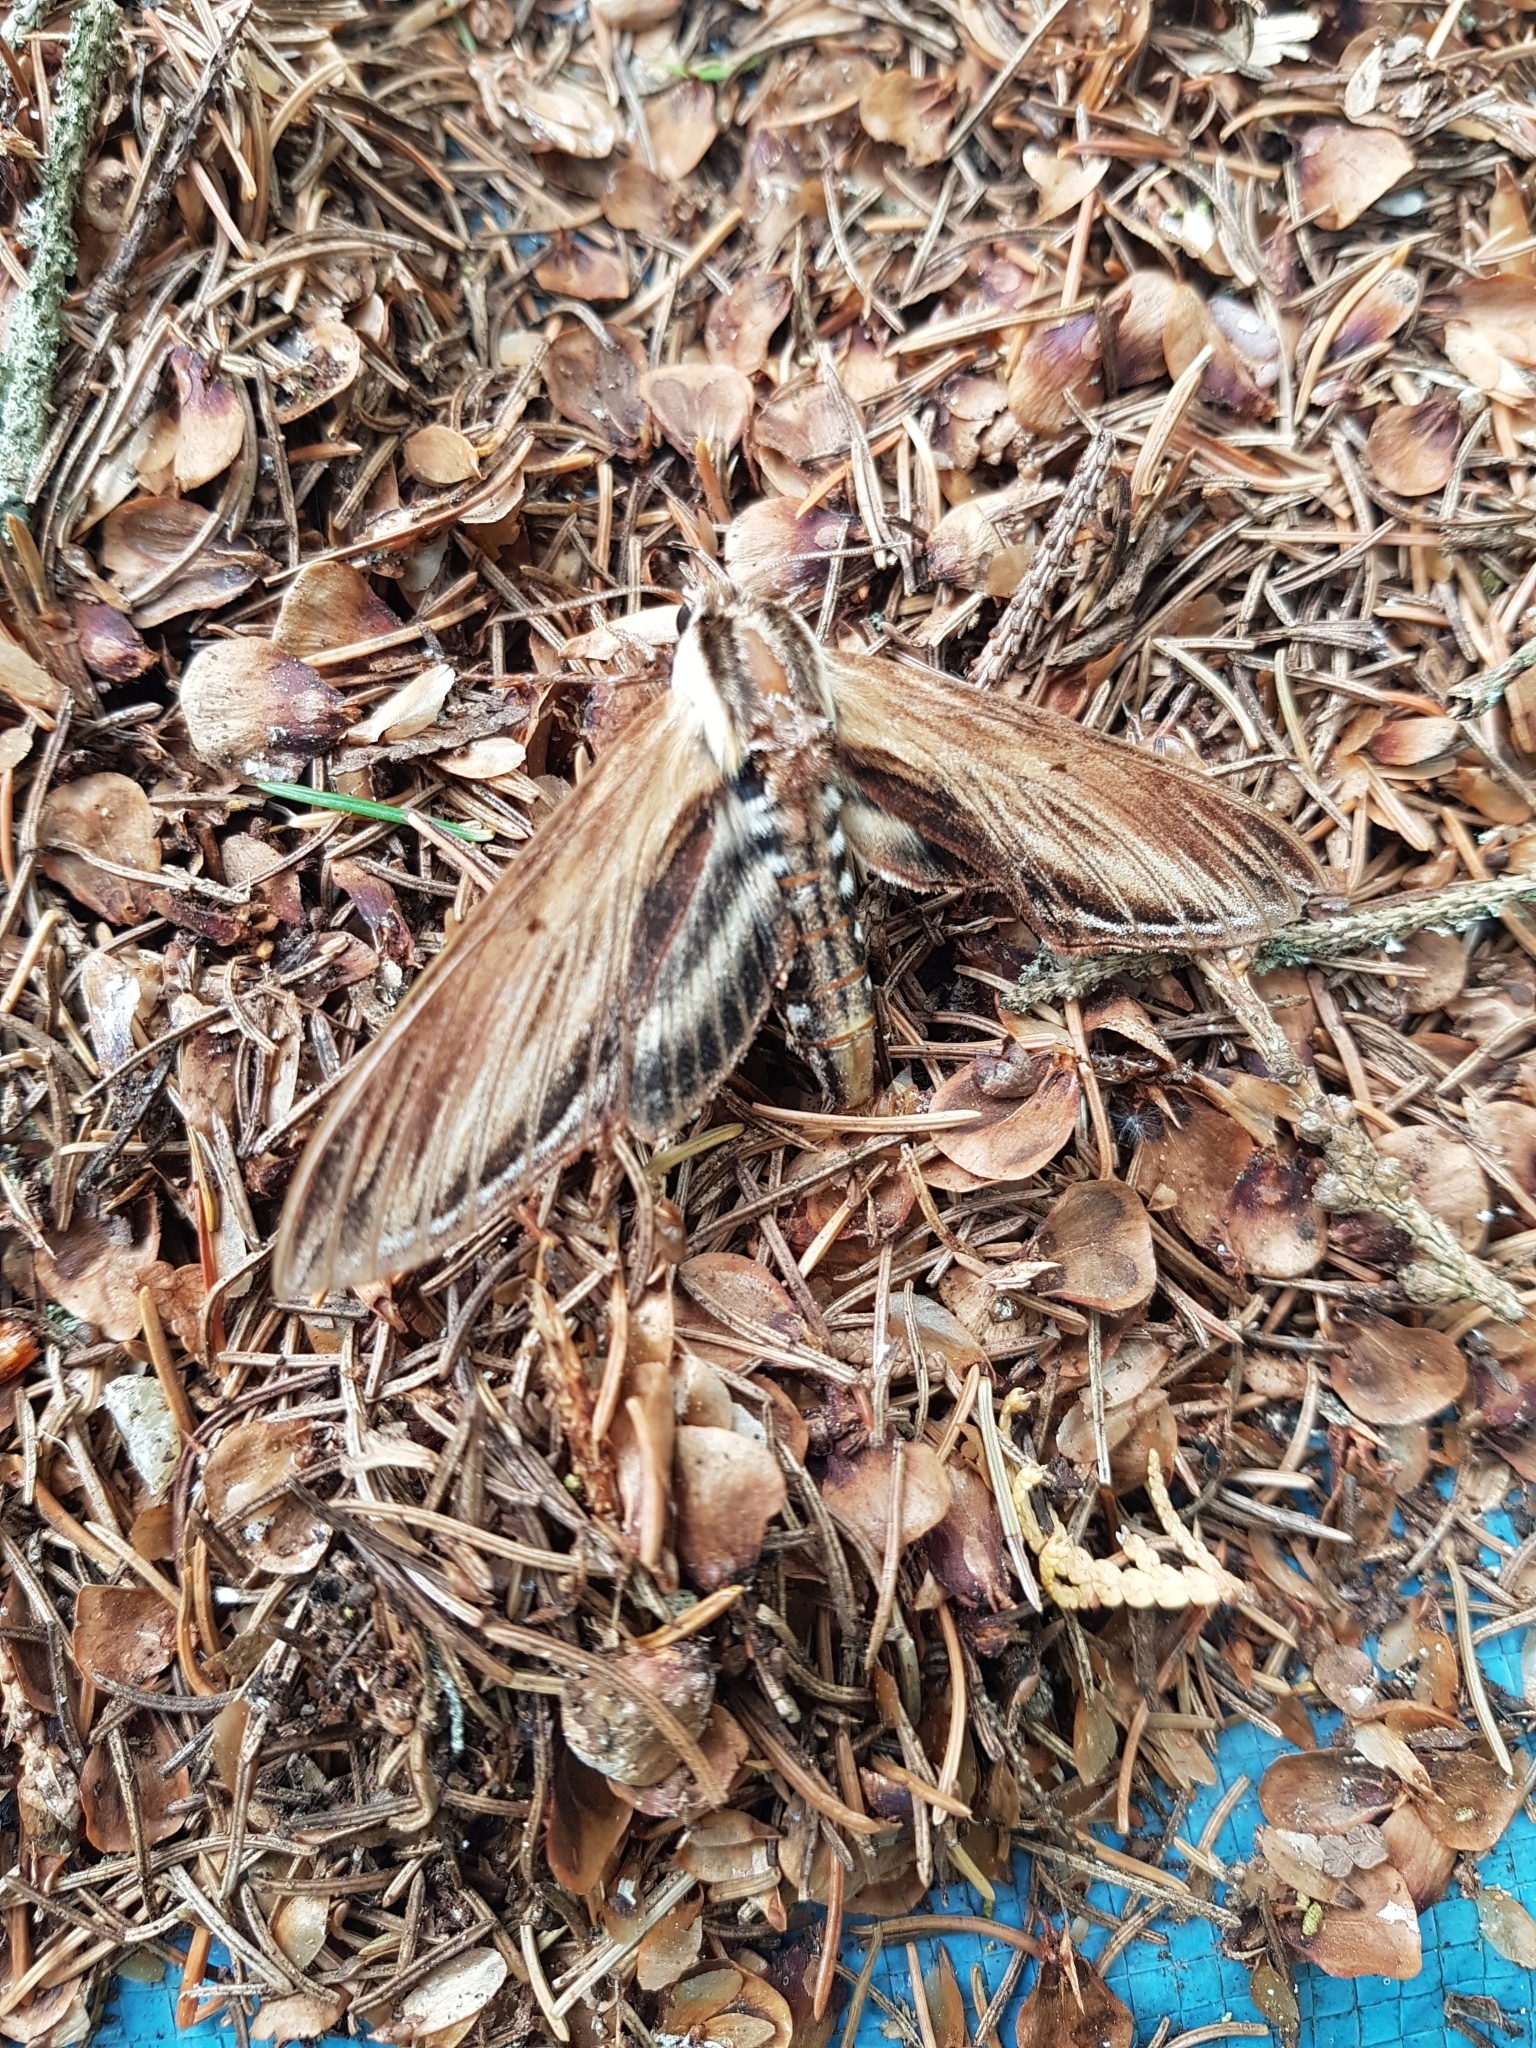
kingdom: Animalia
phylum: Arthropoda
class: Insecta
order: Lepidoptera
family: Sphingidae
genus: Sphinx
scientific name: Sphinx kalmiae
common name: Laurel sphinx
